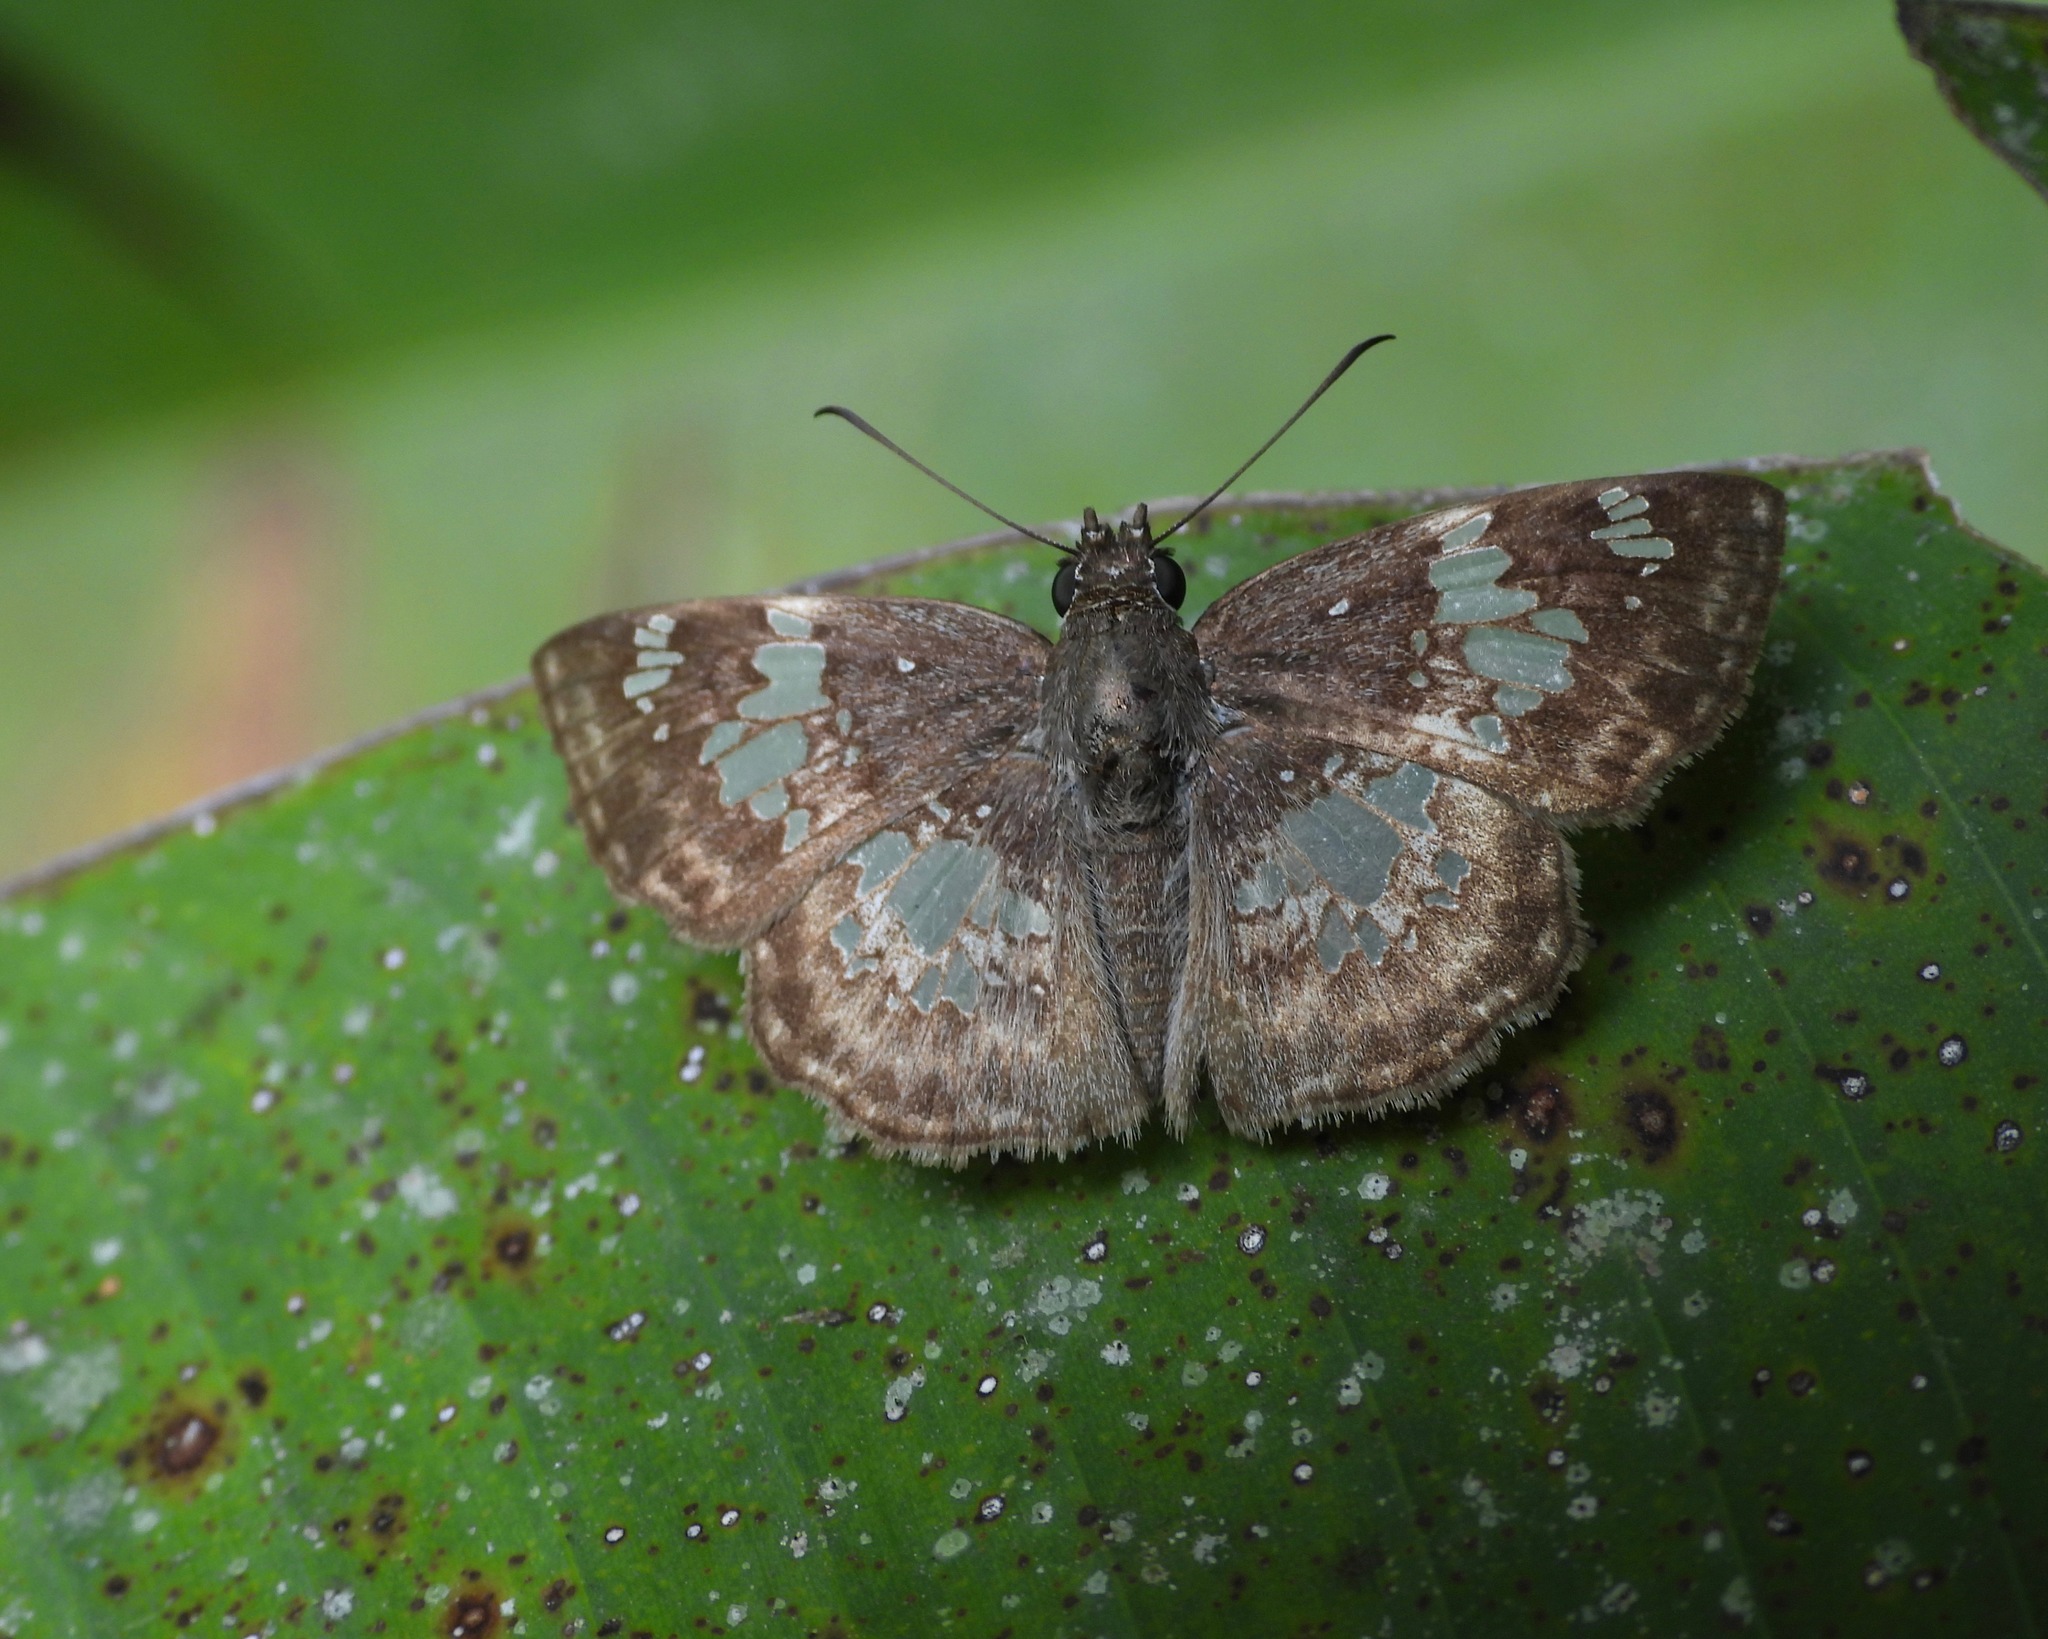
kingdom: Animalia
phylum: Arthropoda
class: Insecta
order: Lepidoptera
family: Hesperiidae
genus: Xenophanes
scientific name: Xenophanes tryxus
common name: Glassy-winged skipper
